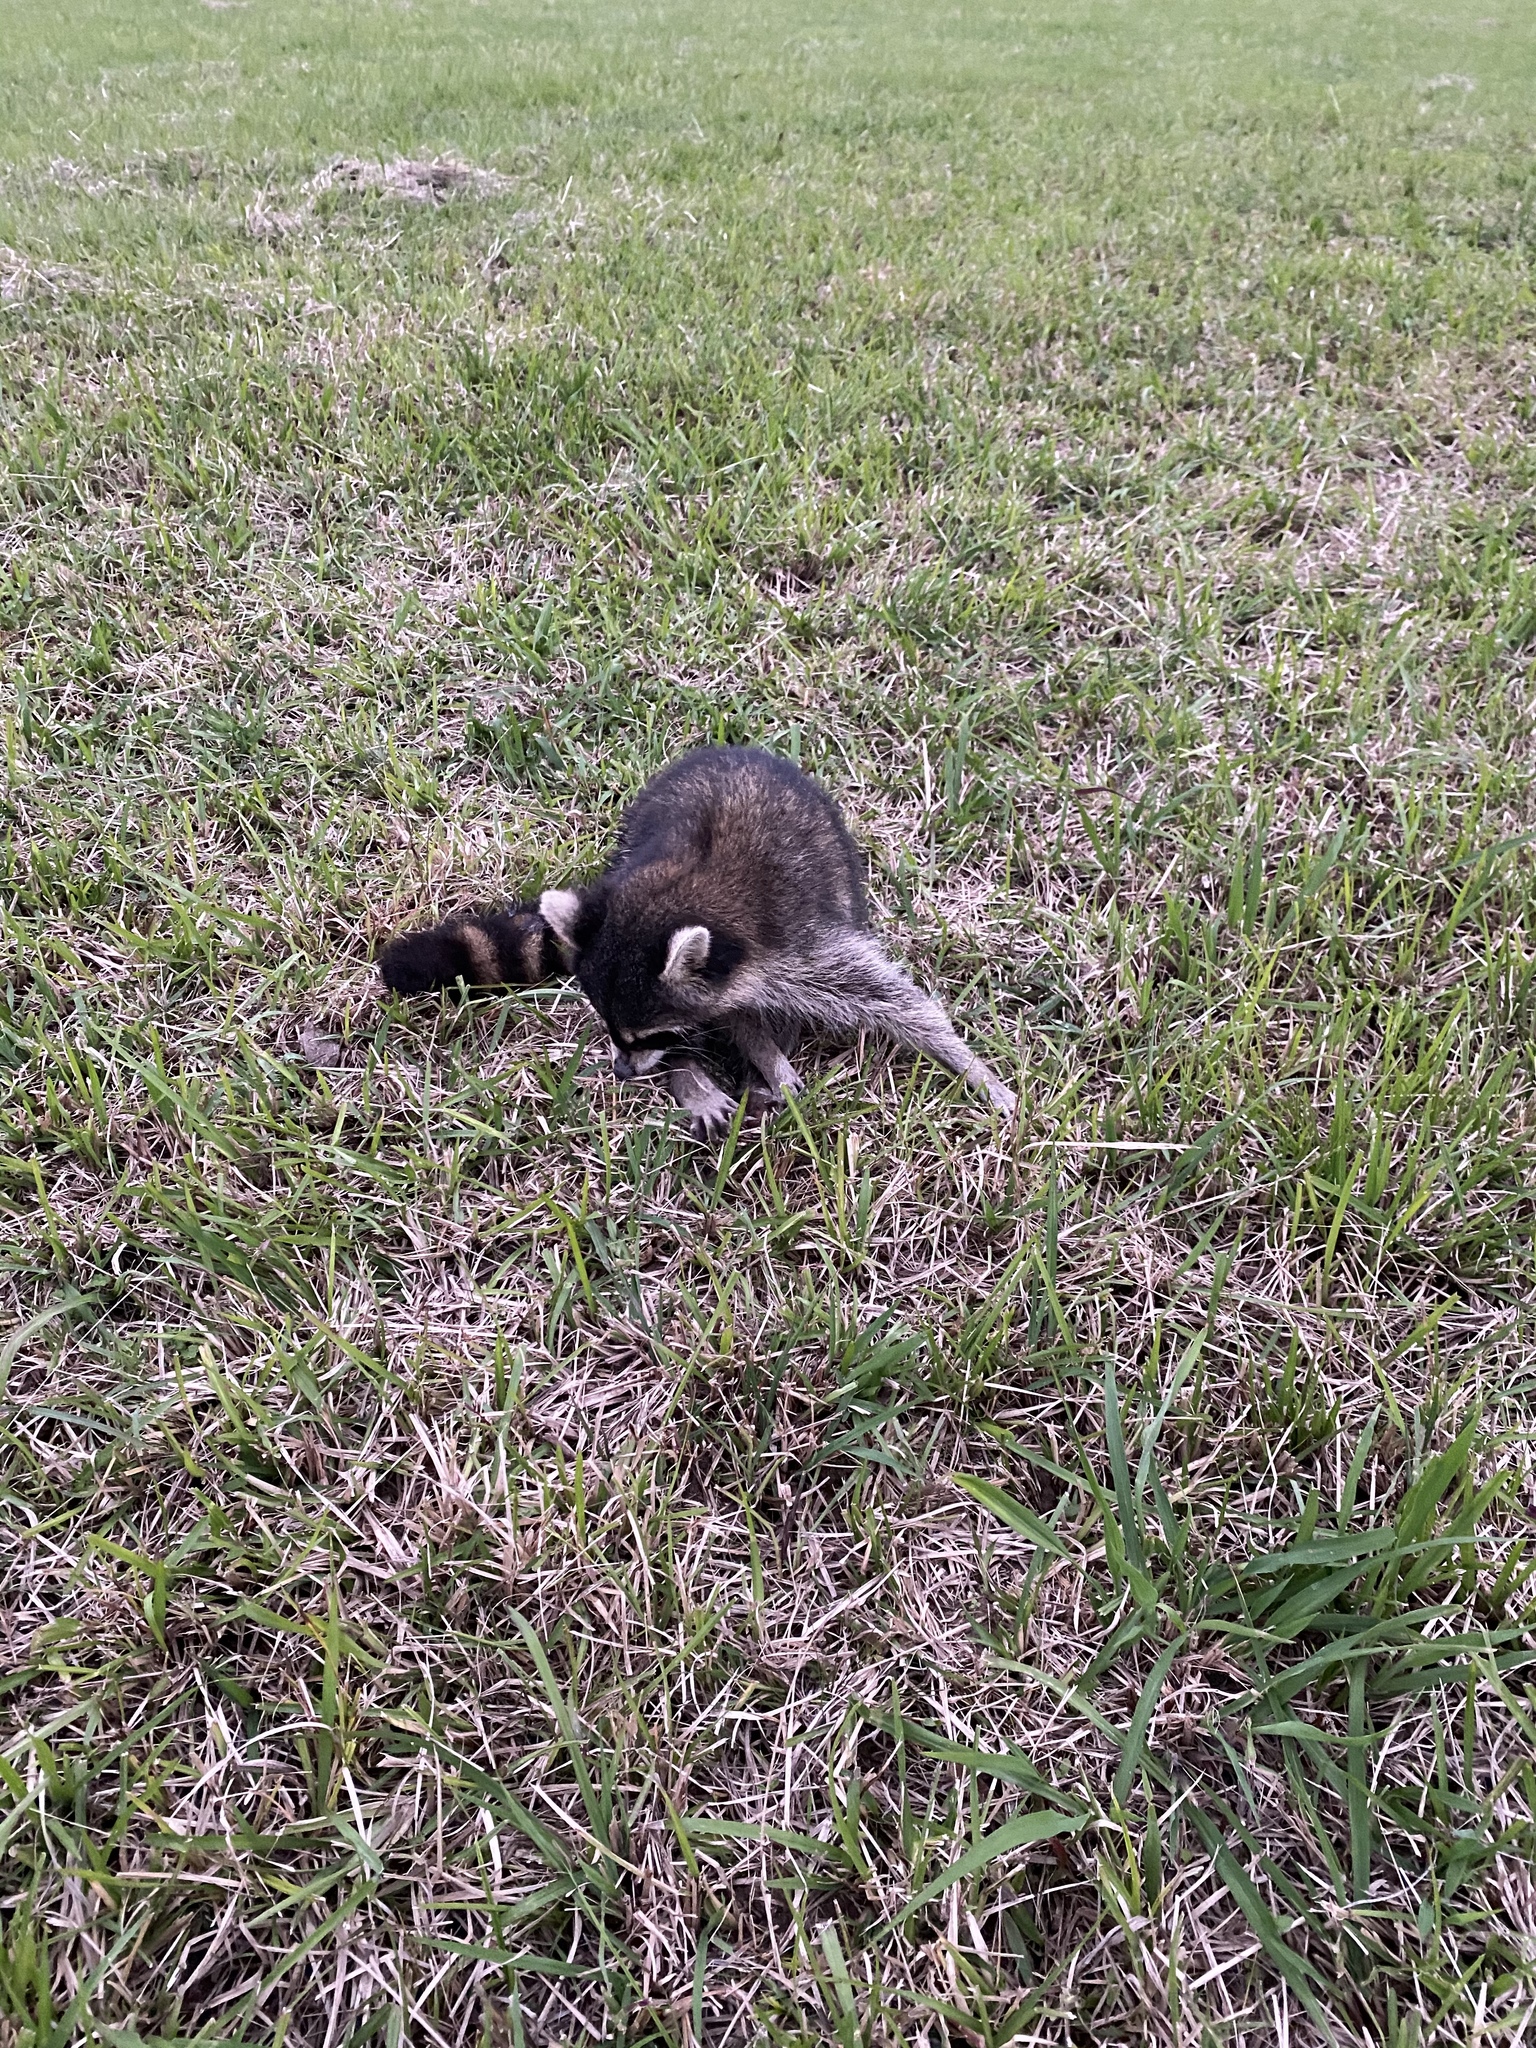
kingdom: Animalia
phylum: Chordata
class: Mammalia
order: Carnivora
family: Procyonidae
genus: Procyon
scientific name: Procyon lotor
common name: Raccoon
